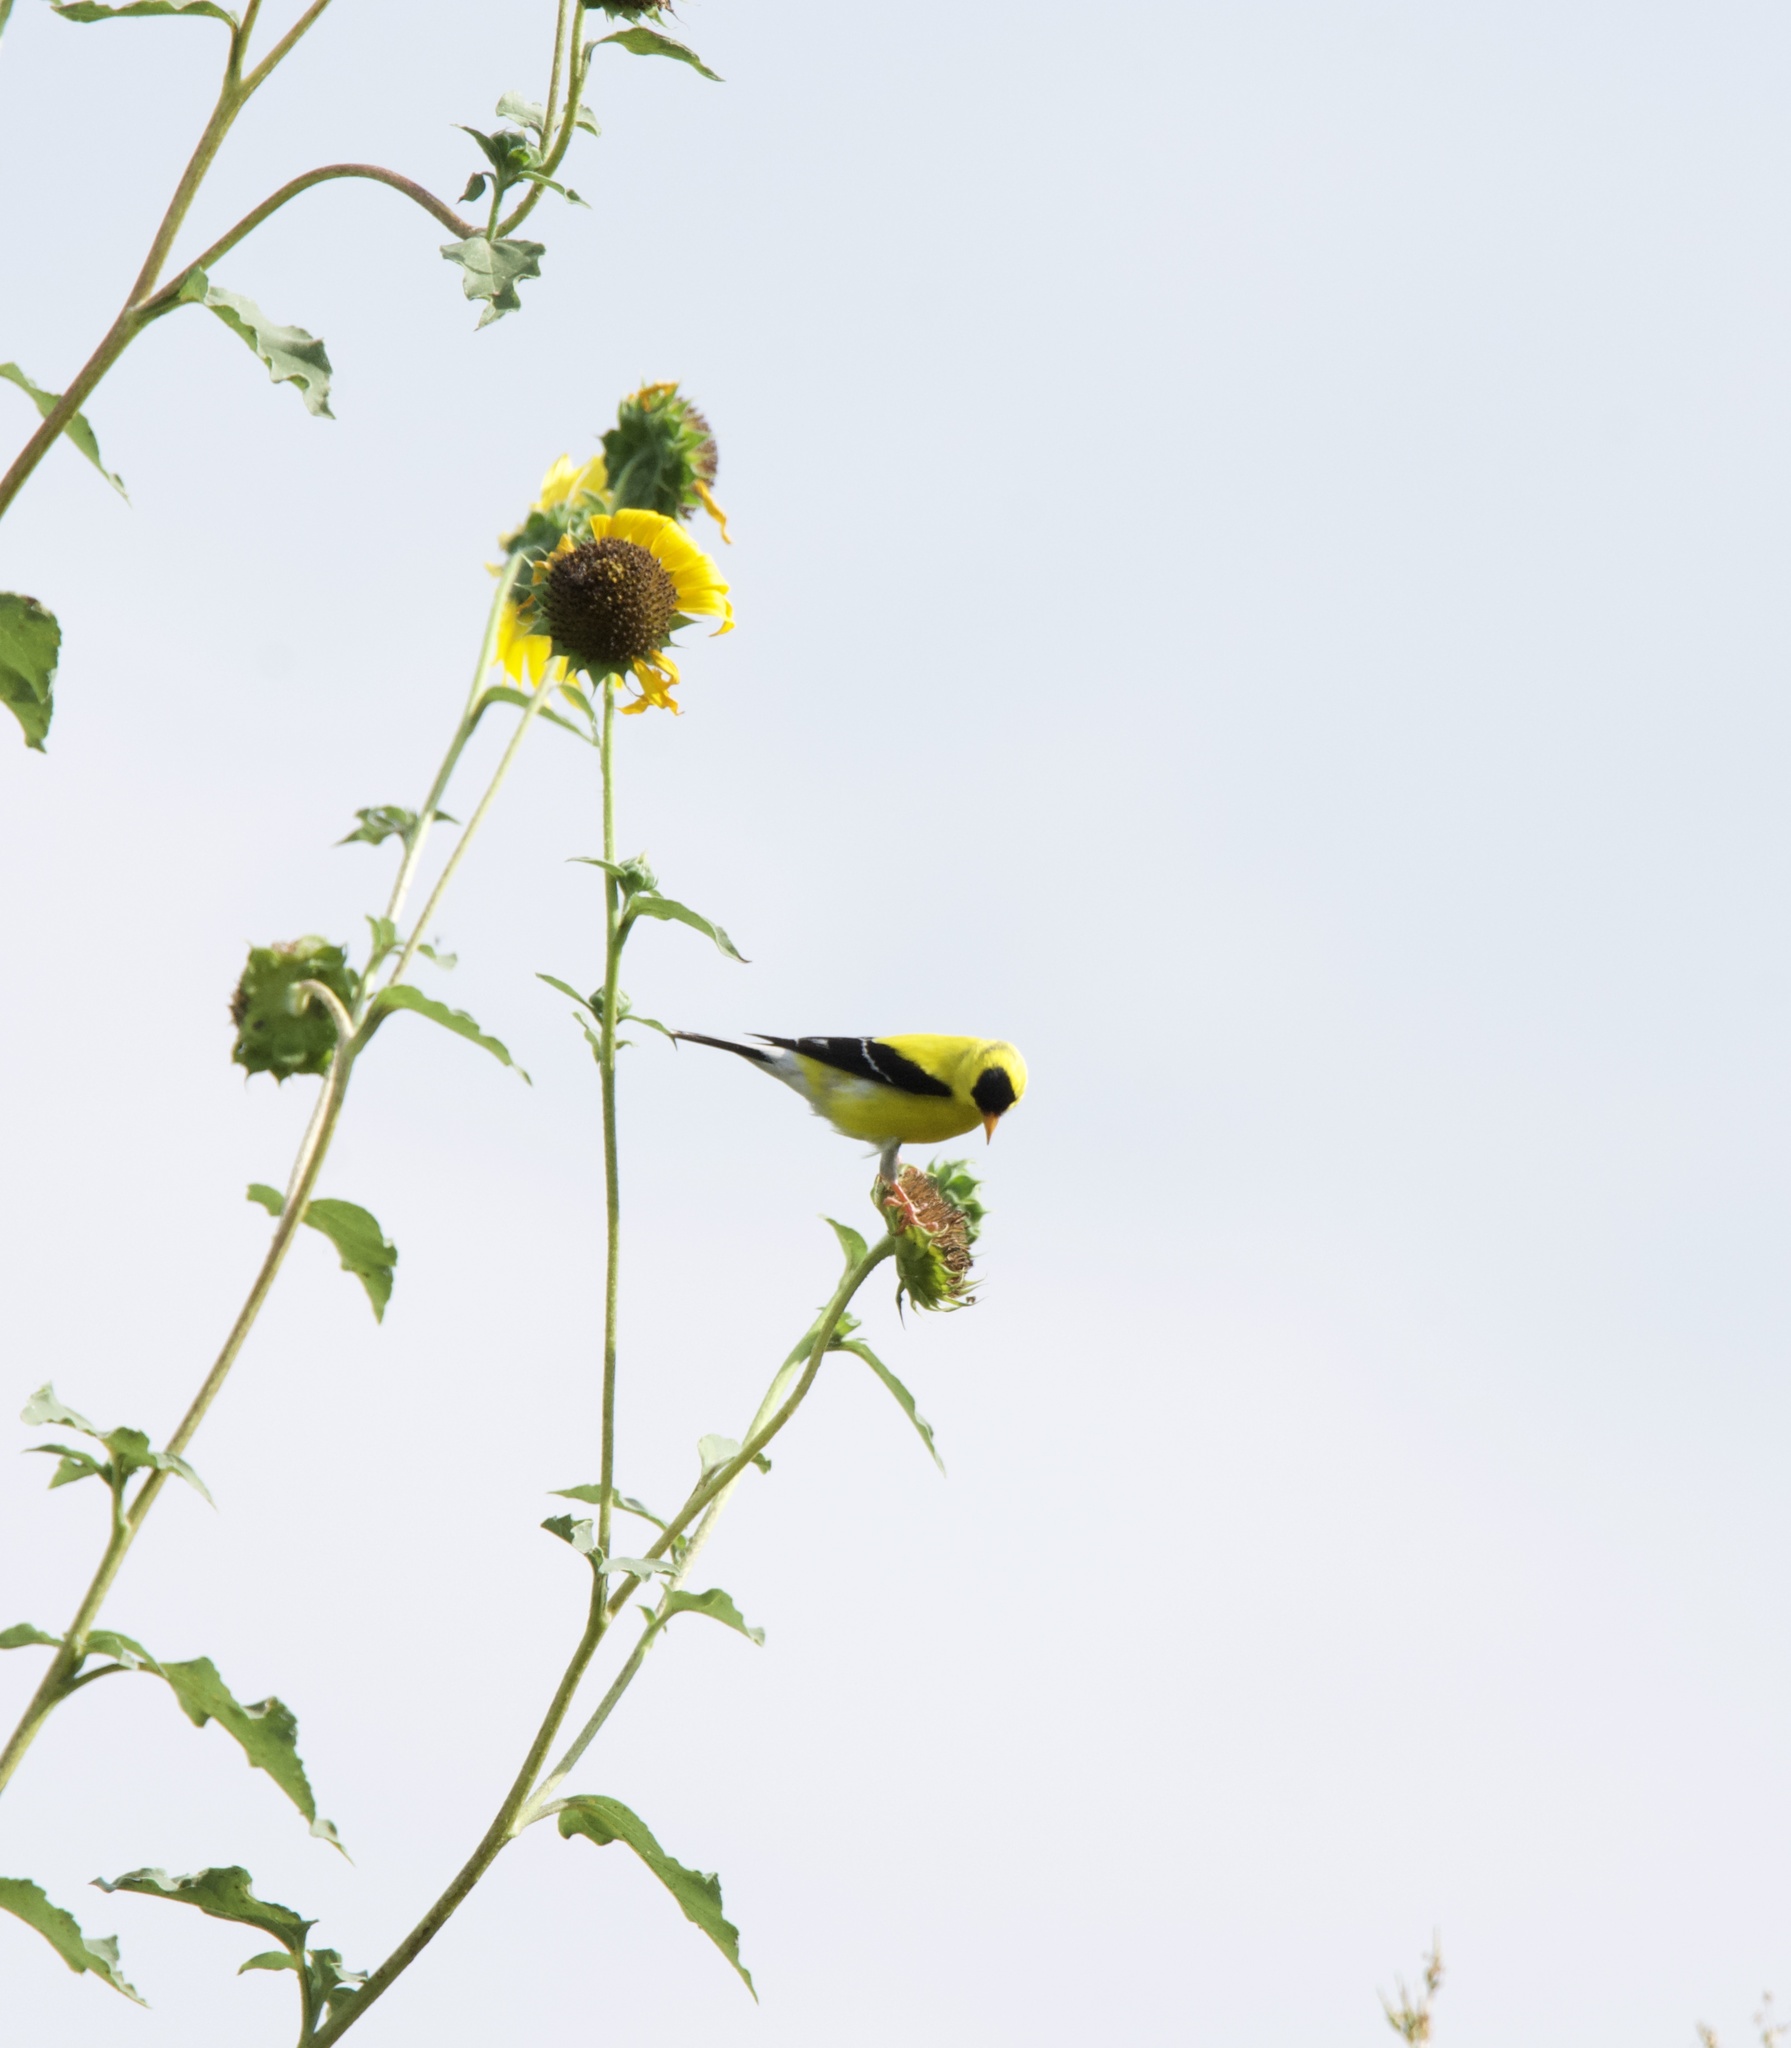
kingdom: Animalia
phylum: Chordata
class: Aves
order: Passeriformes
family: Fringillidae
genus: Spinus
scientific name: Spinus tristis
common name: American goldfinch
